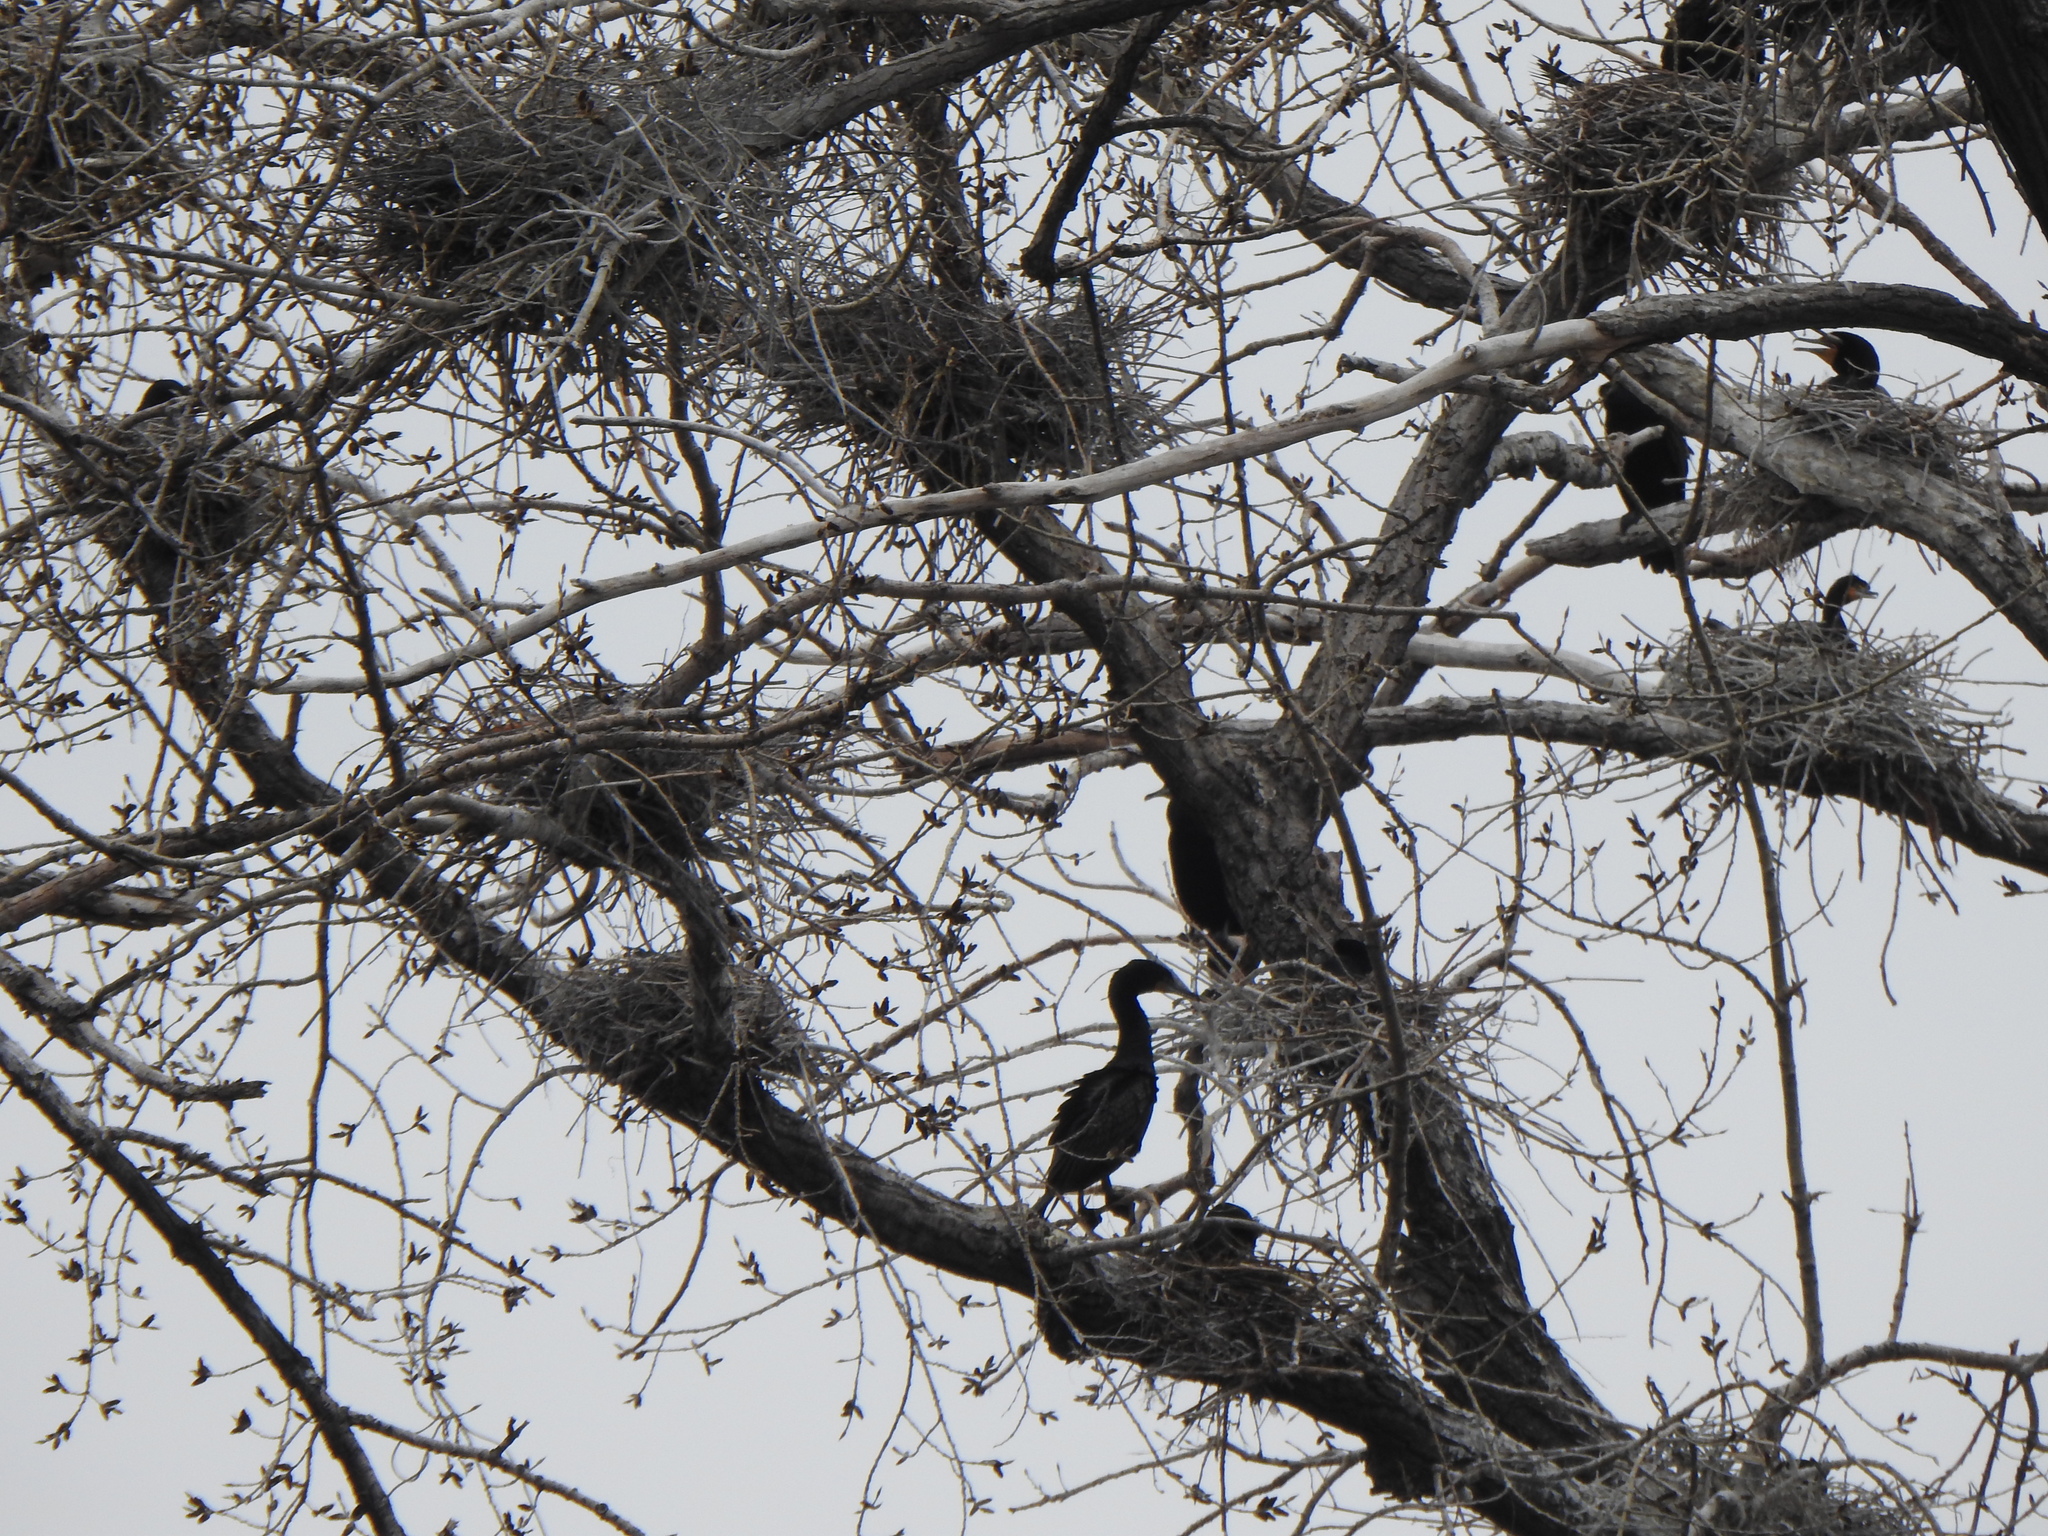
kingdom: Animalia
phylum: Chordata
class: Aves
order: Suliformes
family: Phalacrocoracidae
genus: Phalacrocorax
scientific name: Phalacrocorax auritus
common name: Double-crested cormorant
